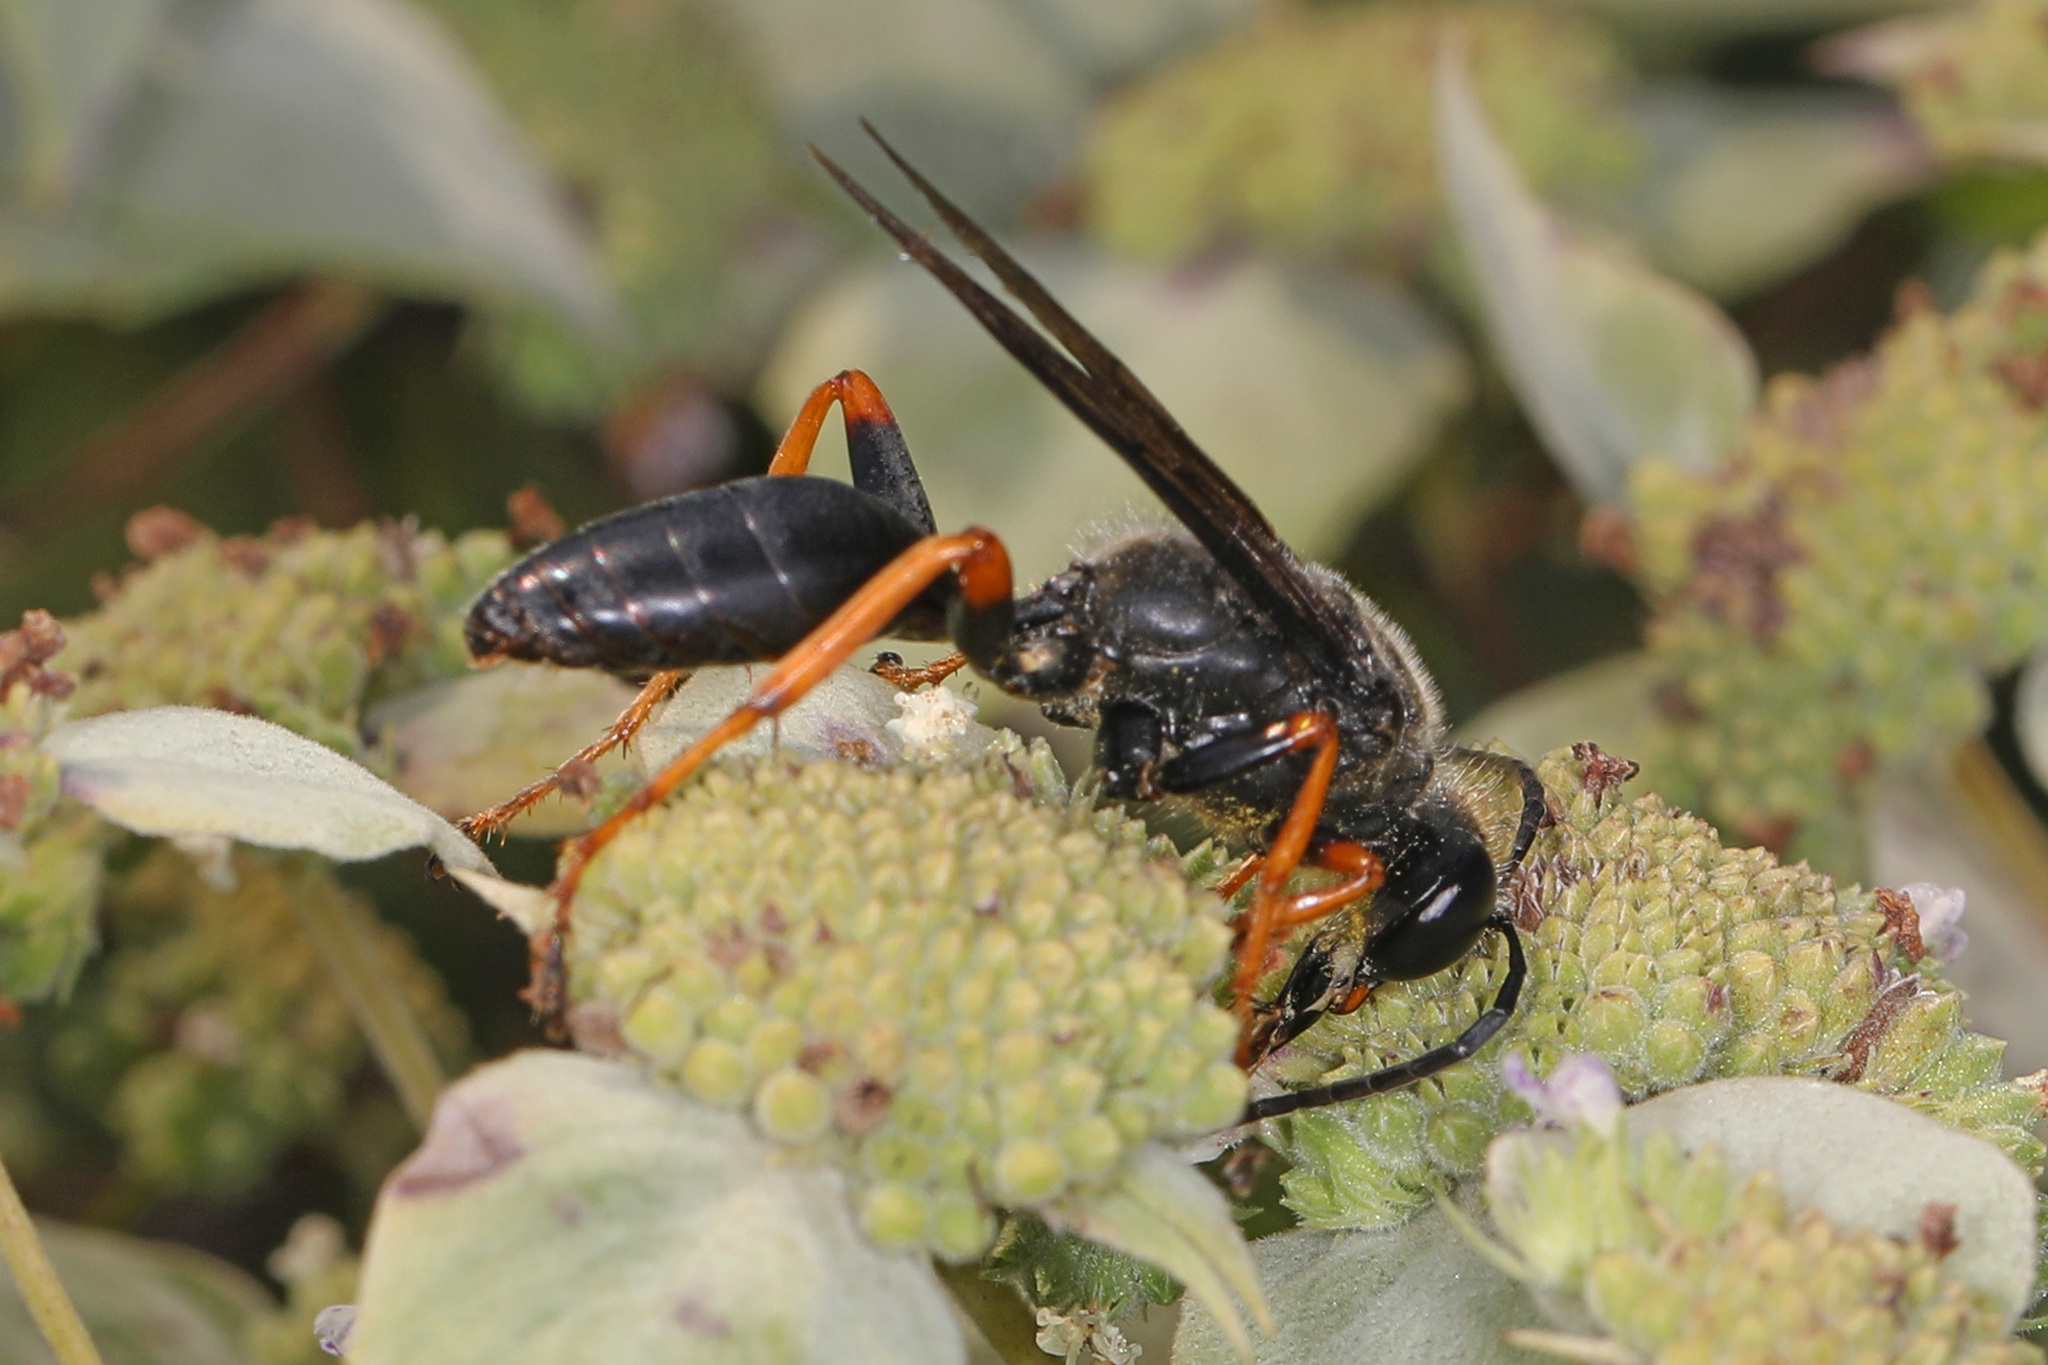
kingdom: Animalia
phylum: Arthropoda
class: Insecta
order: Hymenoptera
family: Sphecidae
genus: Sphex
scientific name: Sphex nudus
